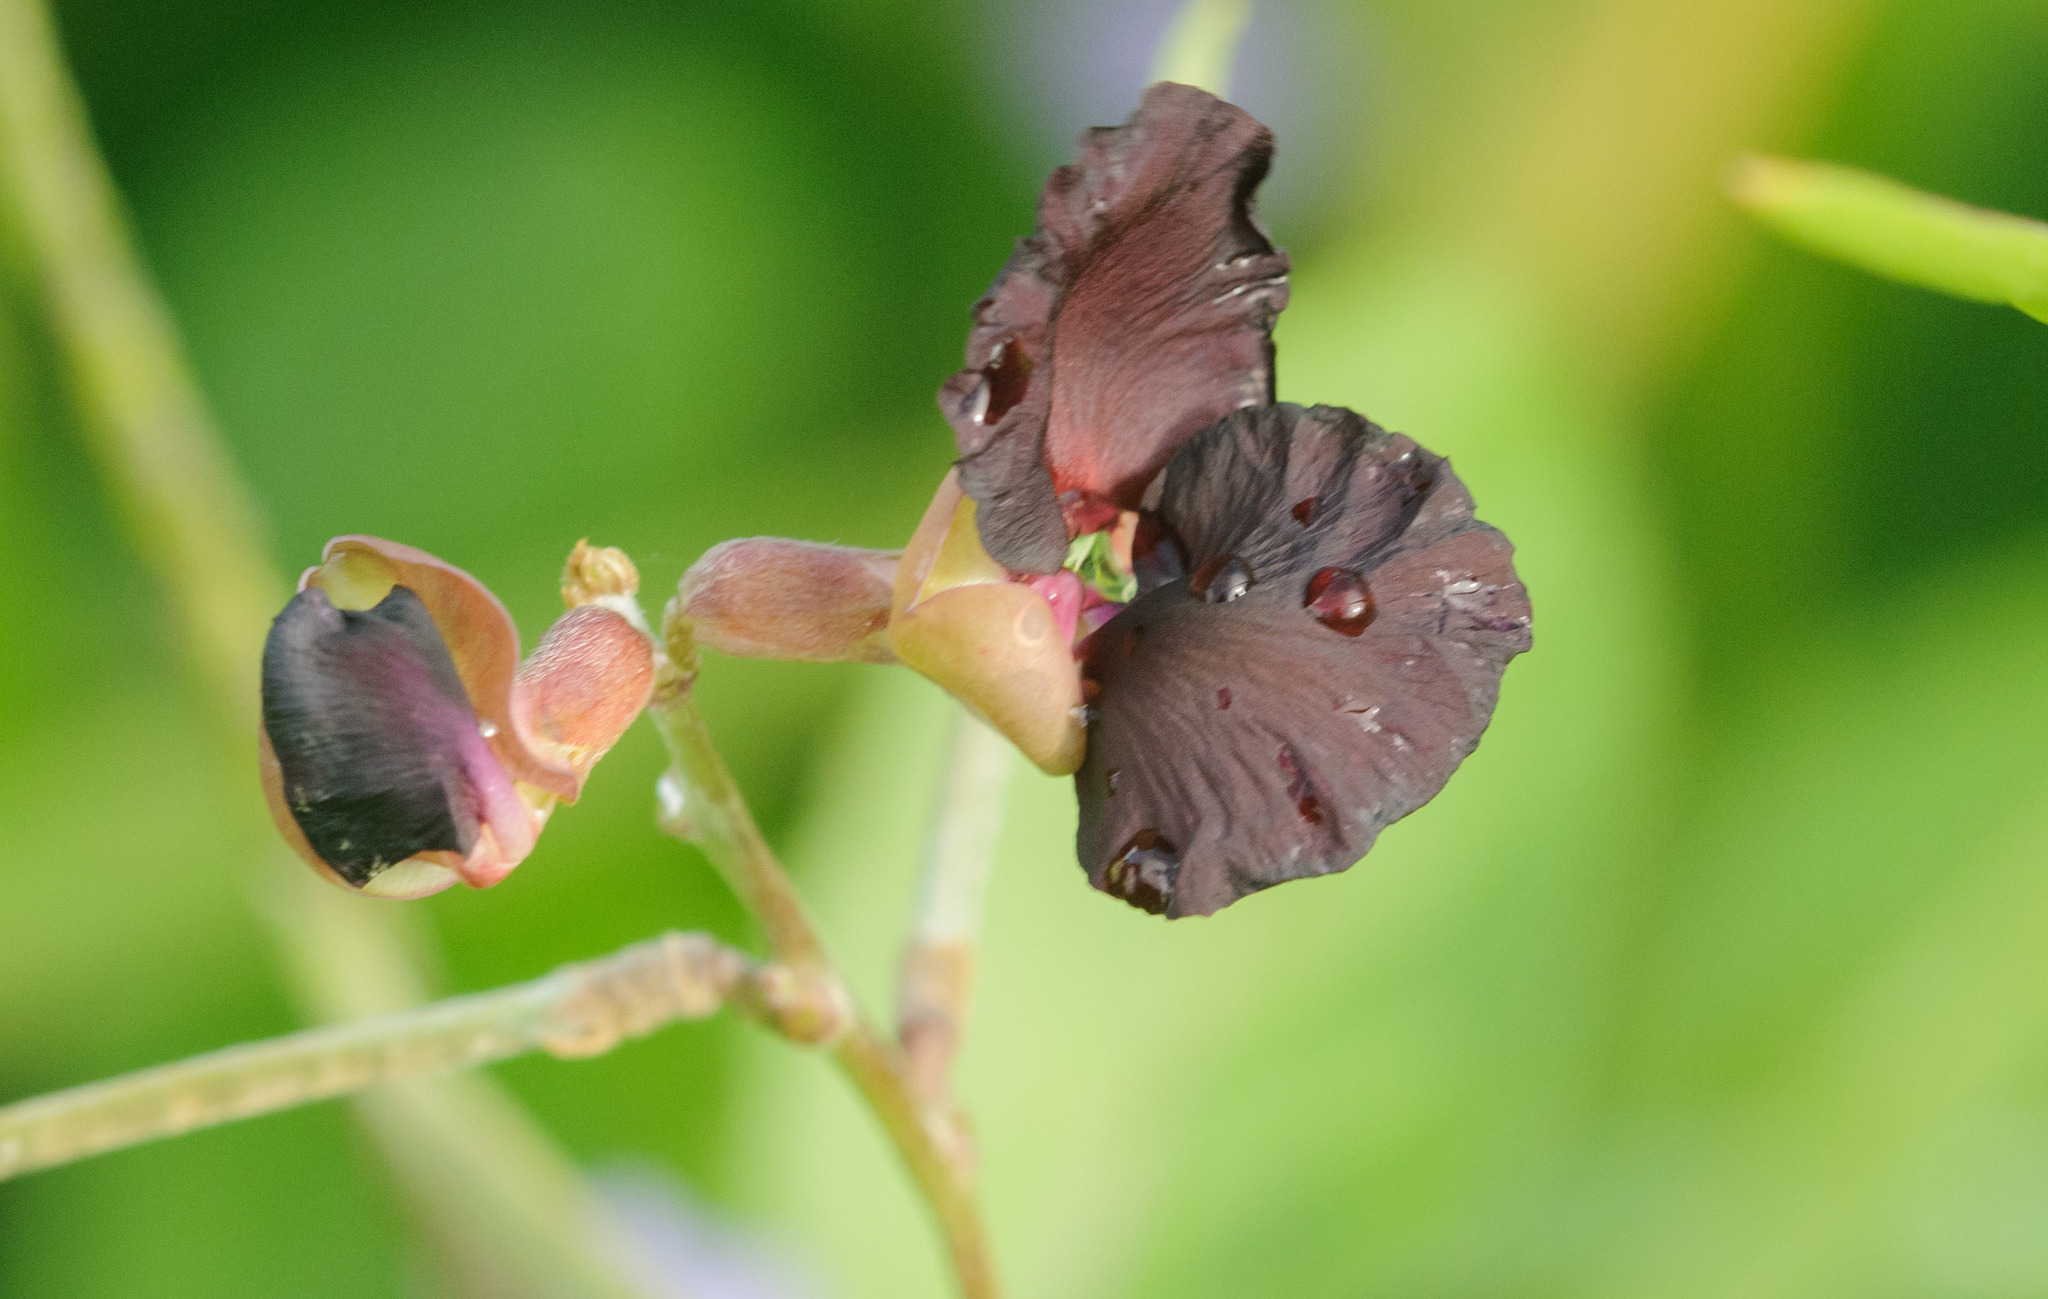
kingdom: Plantae
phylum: Tracheophyta
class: Magnoliopsida
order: Fabales
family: Fabaceae
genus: Macroptilium
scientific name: Macroptilium atropurpureum
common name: Purple bushbean
